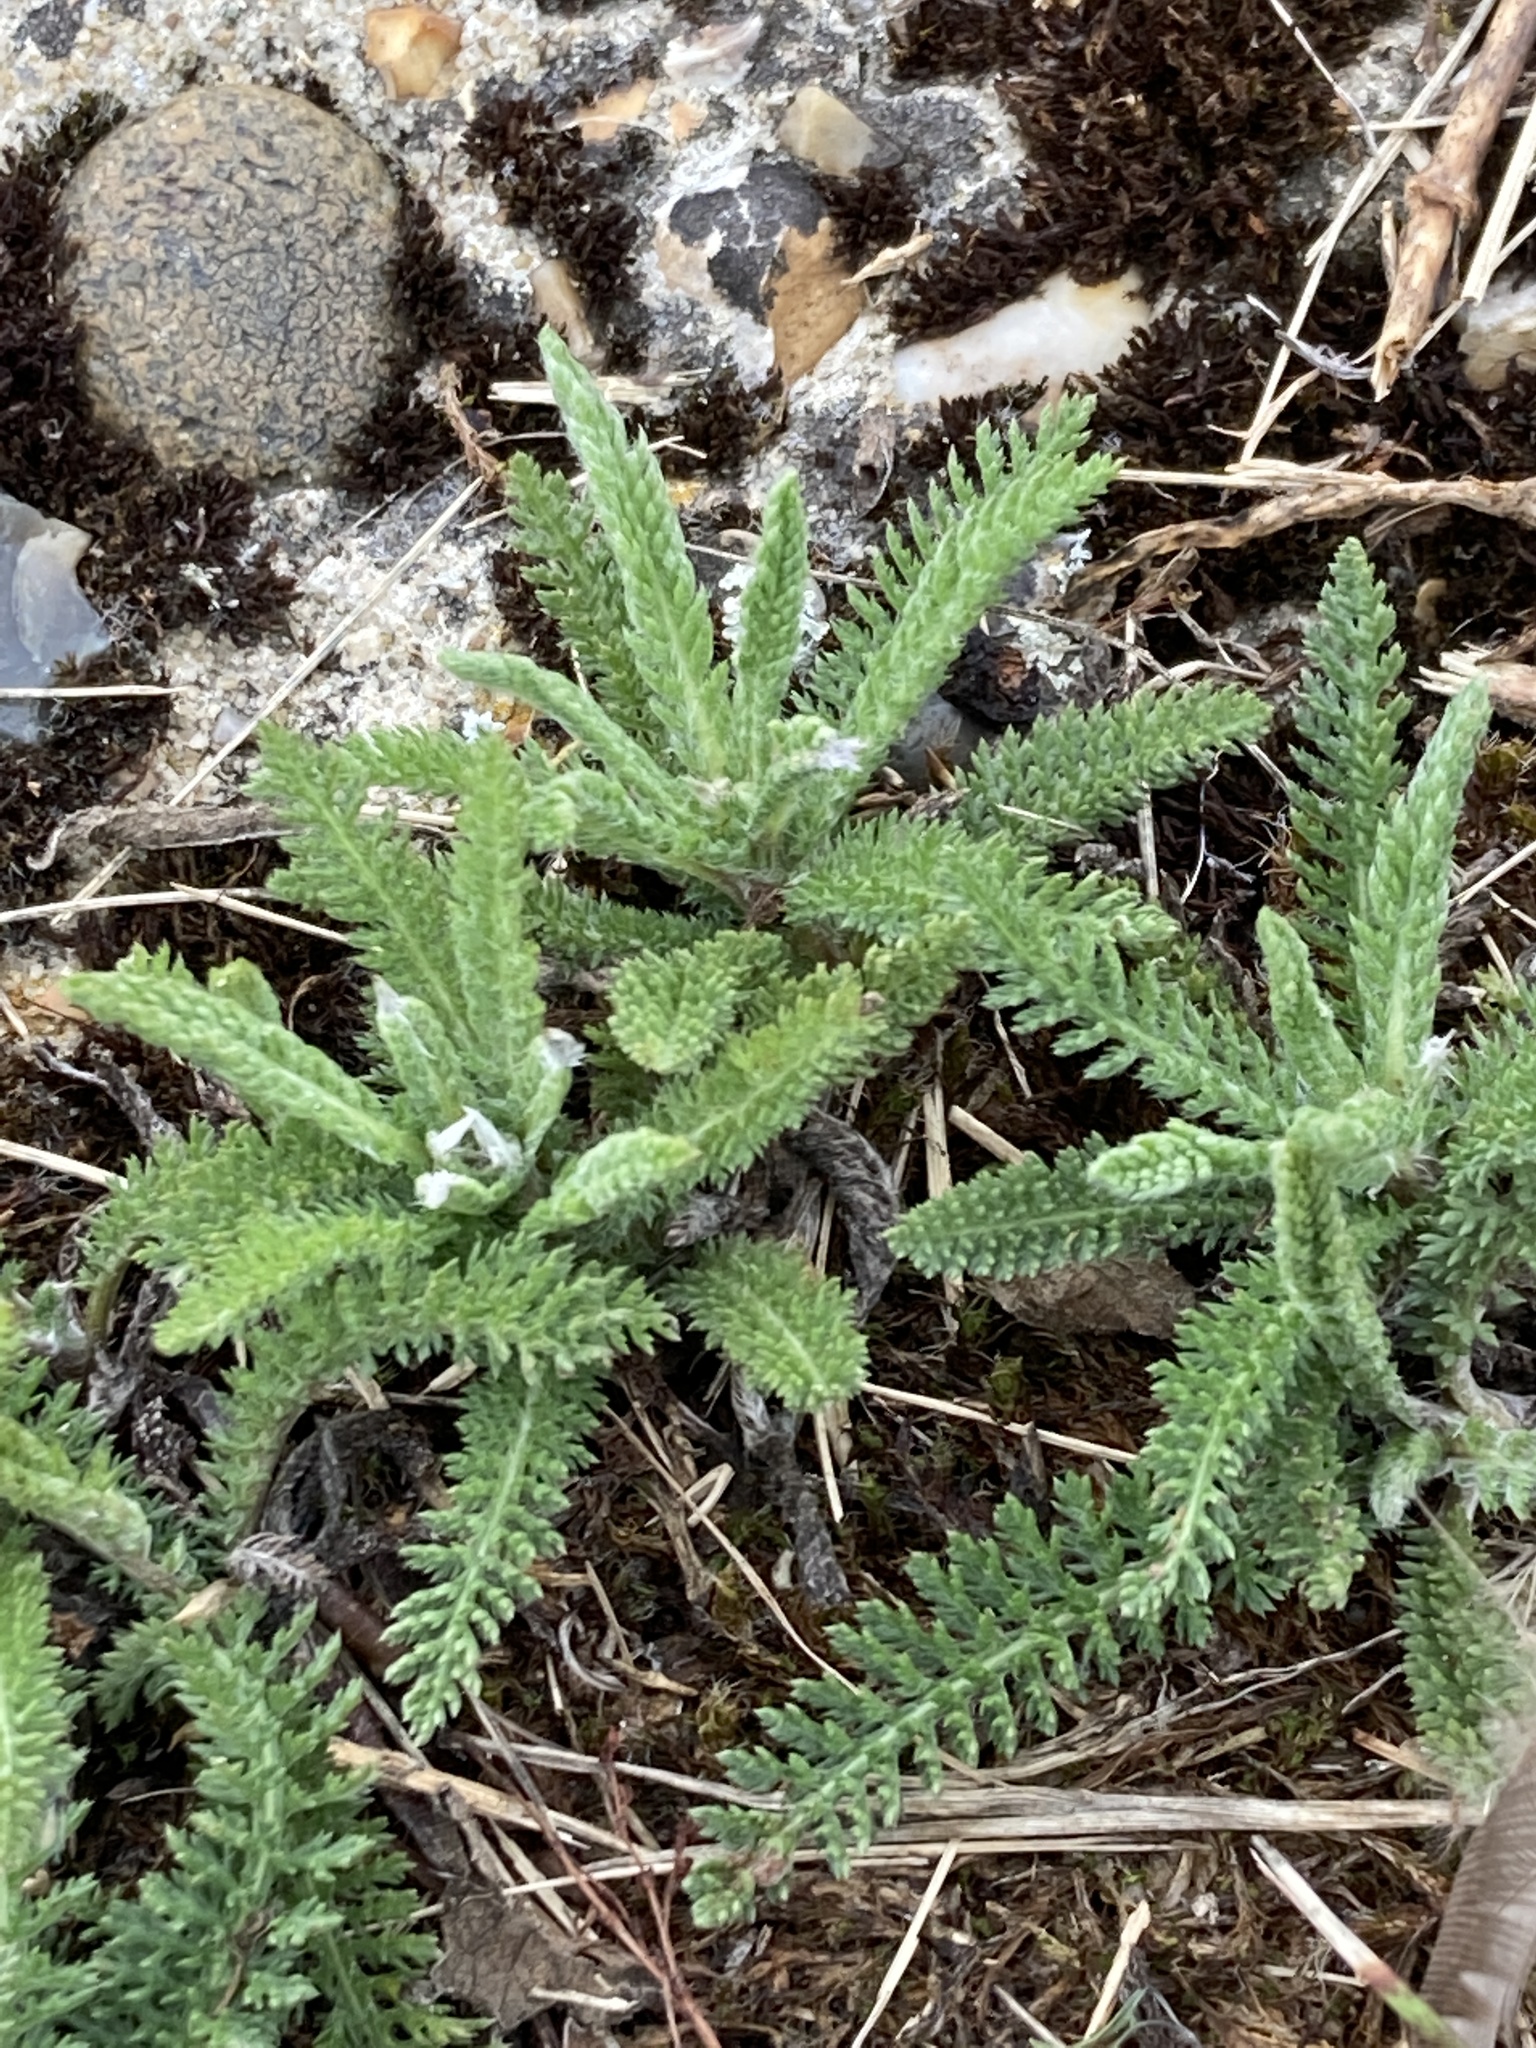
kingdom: Plantae
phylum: Tracheophyta
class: Magnoliopsida
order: Asterales
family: Asteraceae
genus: Achillea
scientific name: Achillea millefolium
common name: Yarrow
